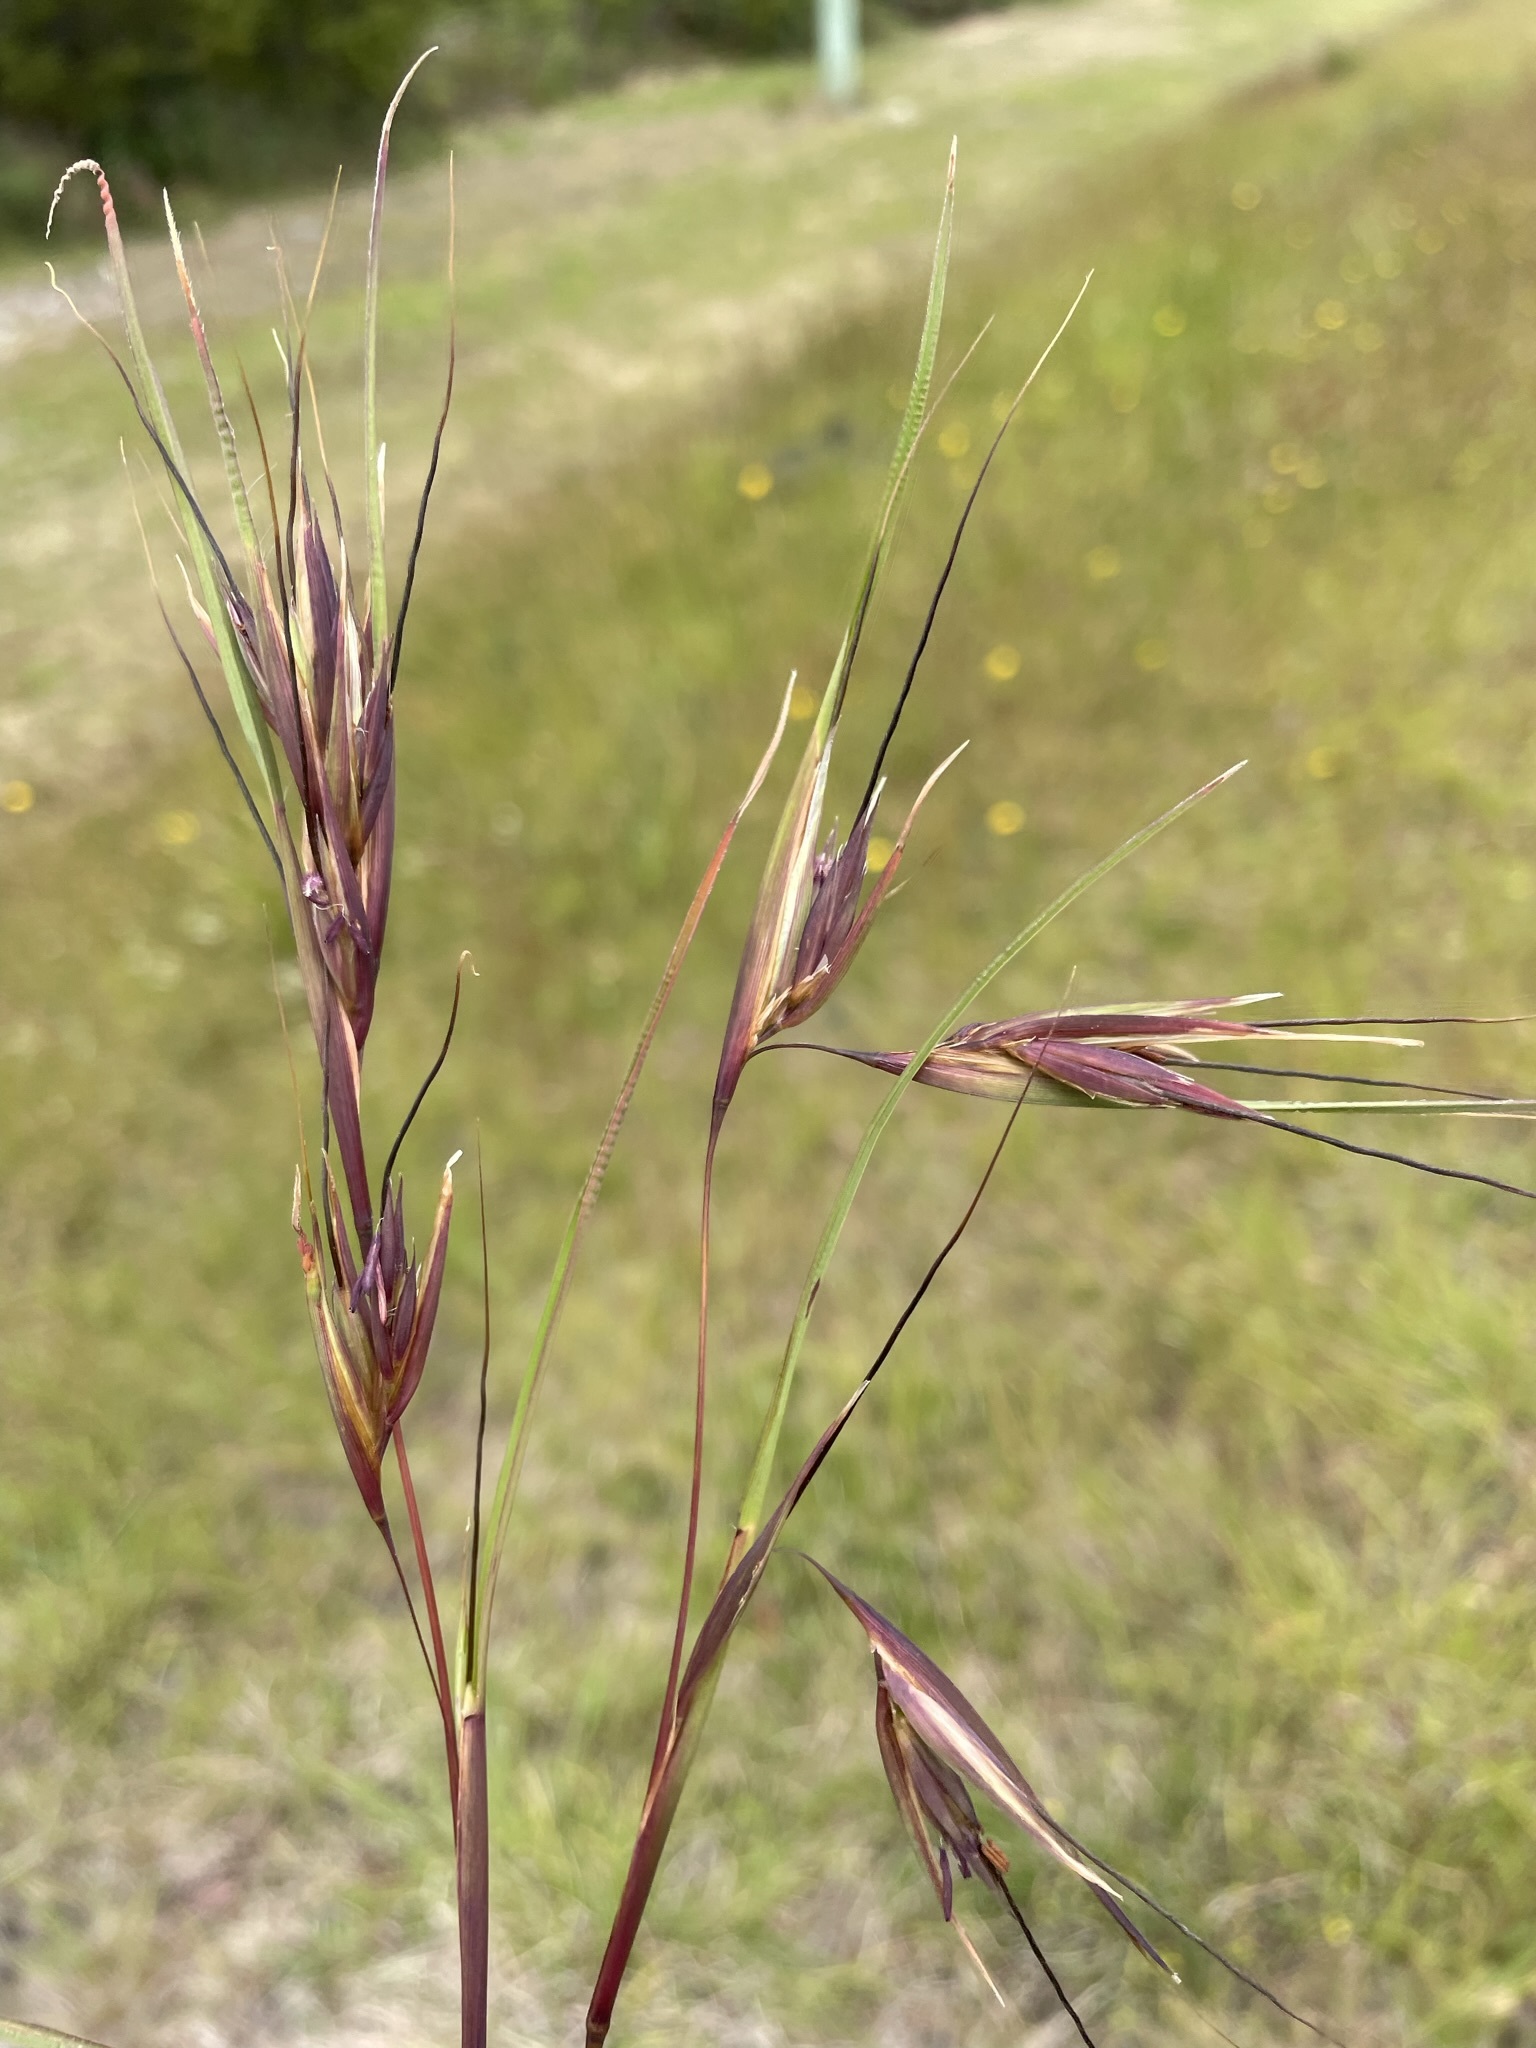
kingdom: Plantae
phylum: Tracheophyta
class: Liliopsida
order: Poales
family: Poaceae
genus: Themeda
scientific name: Themeda triandra
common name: Kangaroo grass
